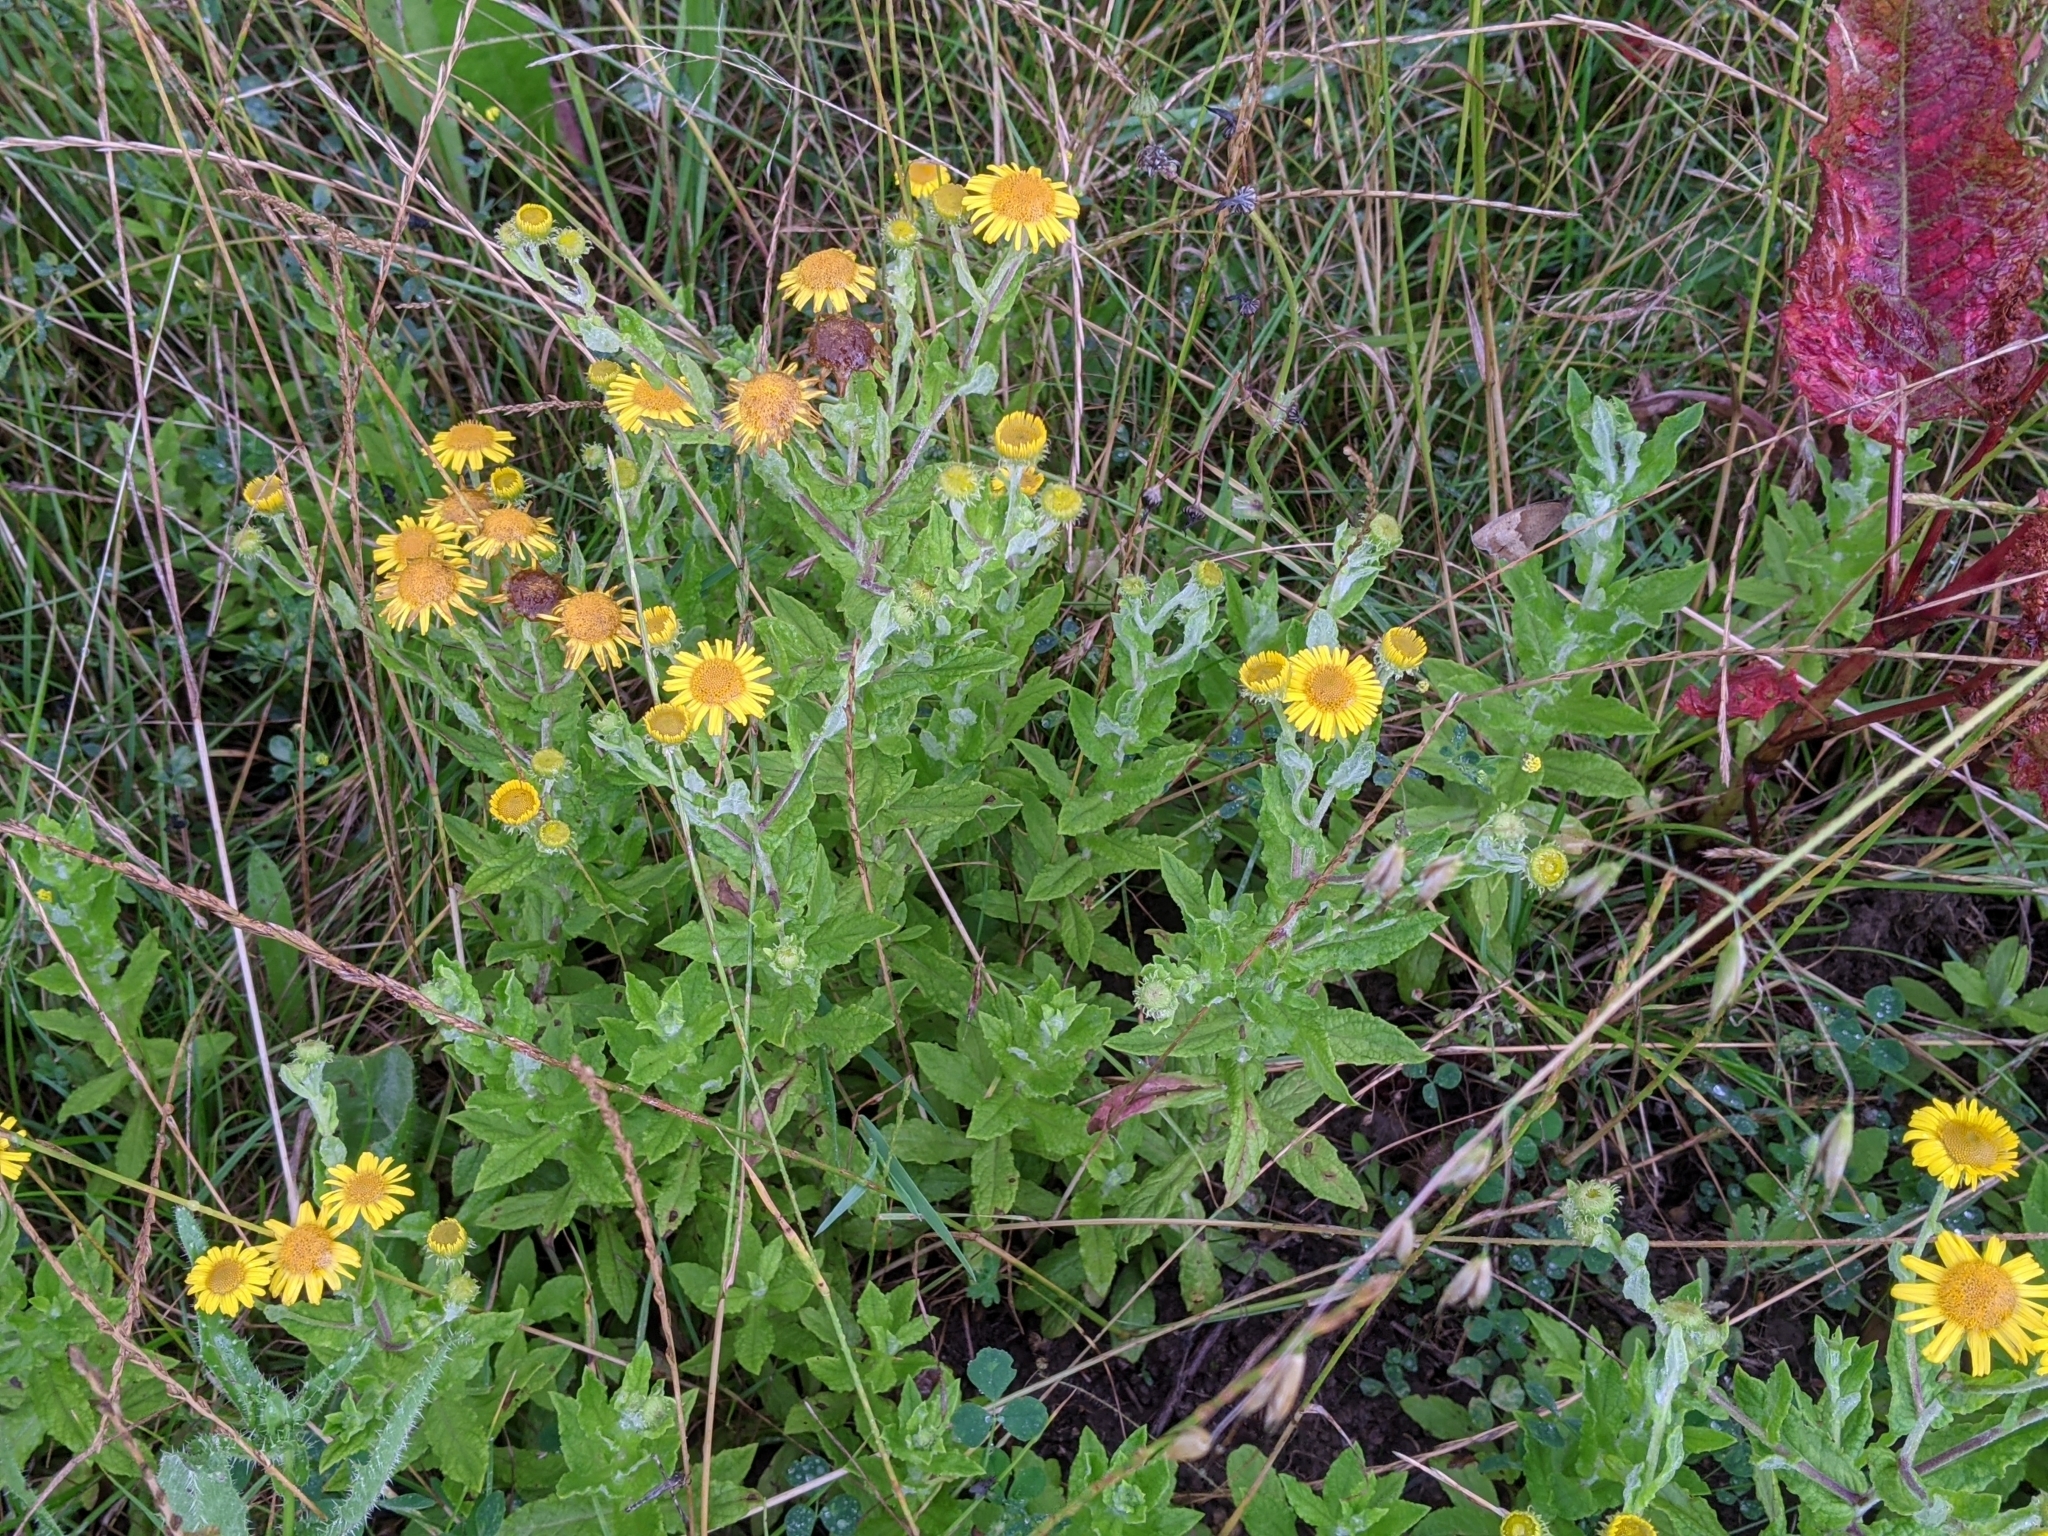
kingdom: Plantae
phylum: Tracheophyta
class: Magnoliopsida
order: Asterales
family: Asteraceae
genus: Pulicaria
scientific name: Pulicaria dysenterica
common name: Common fleabane
